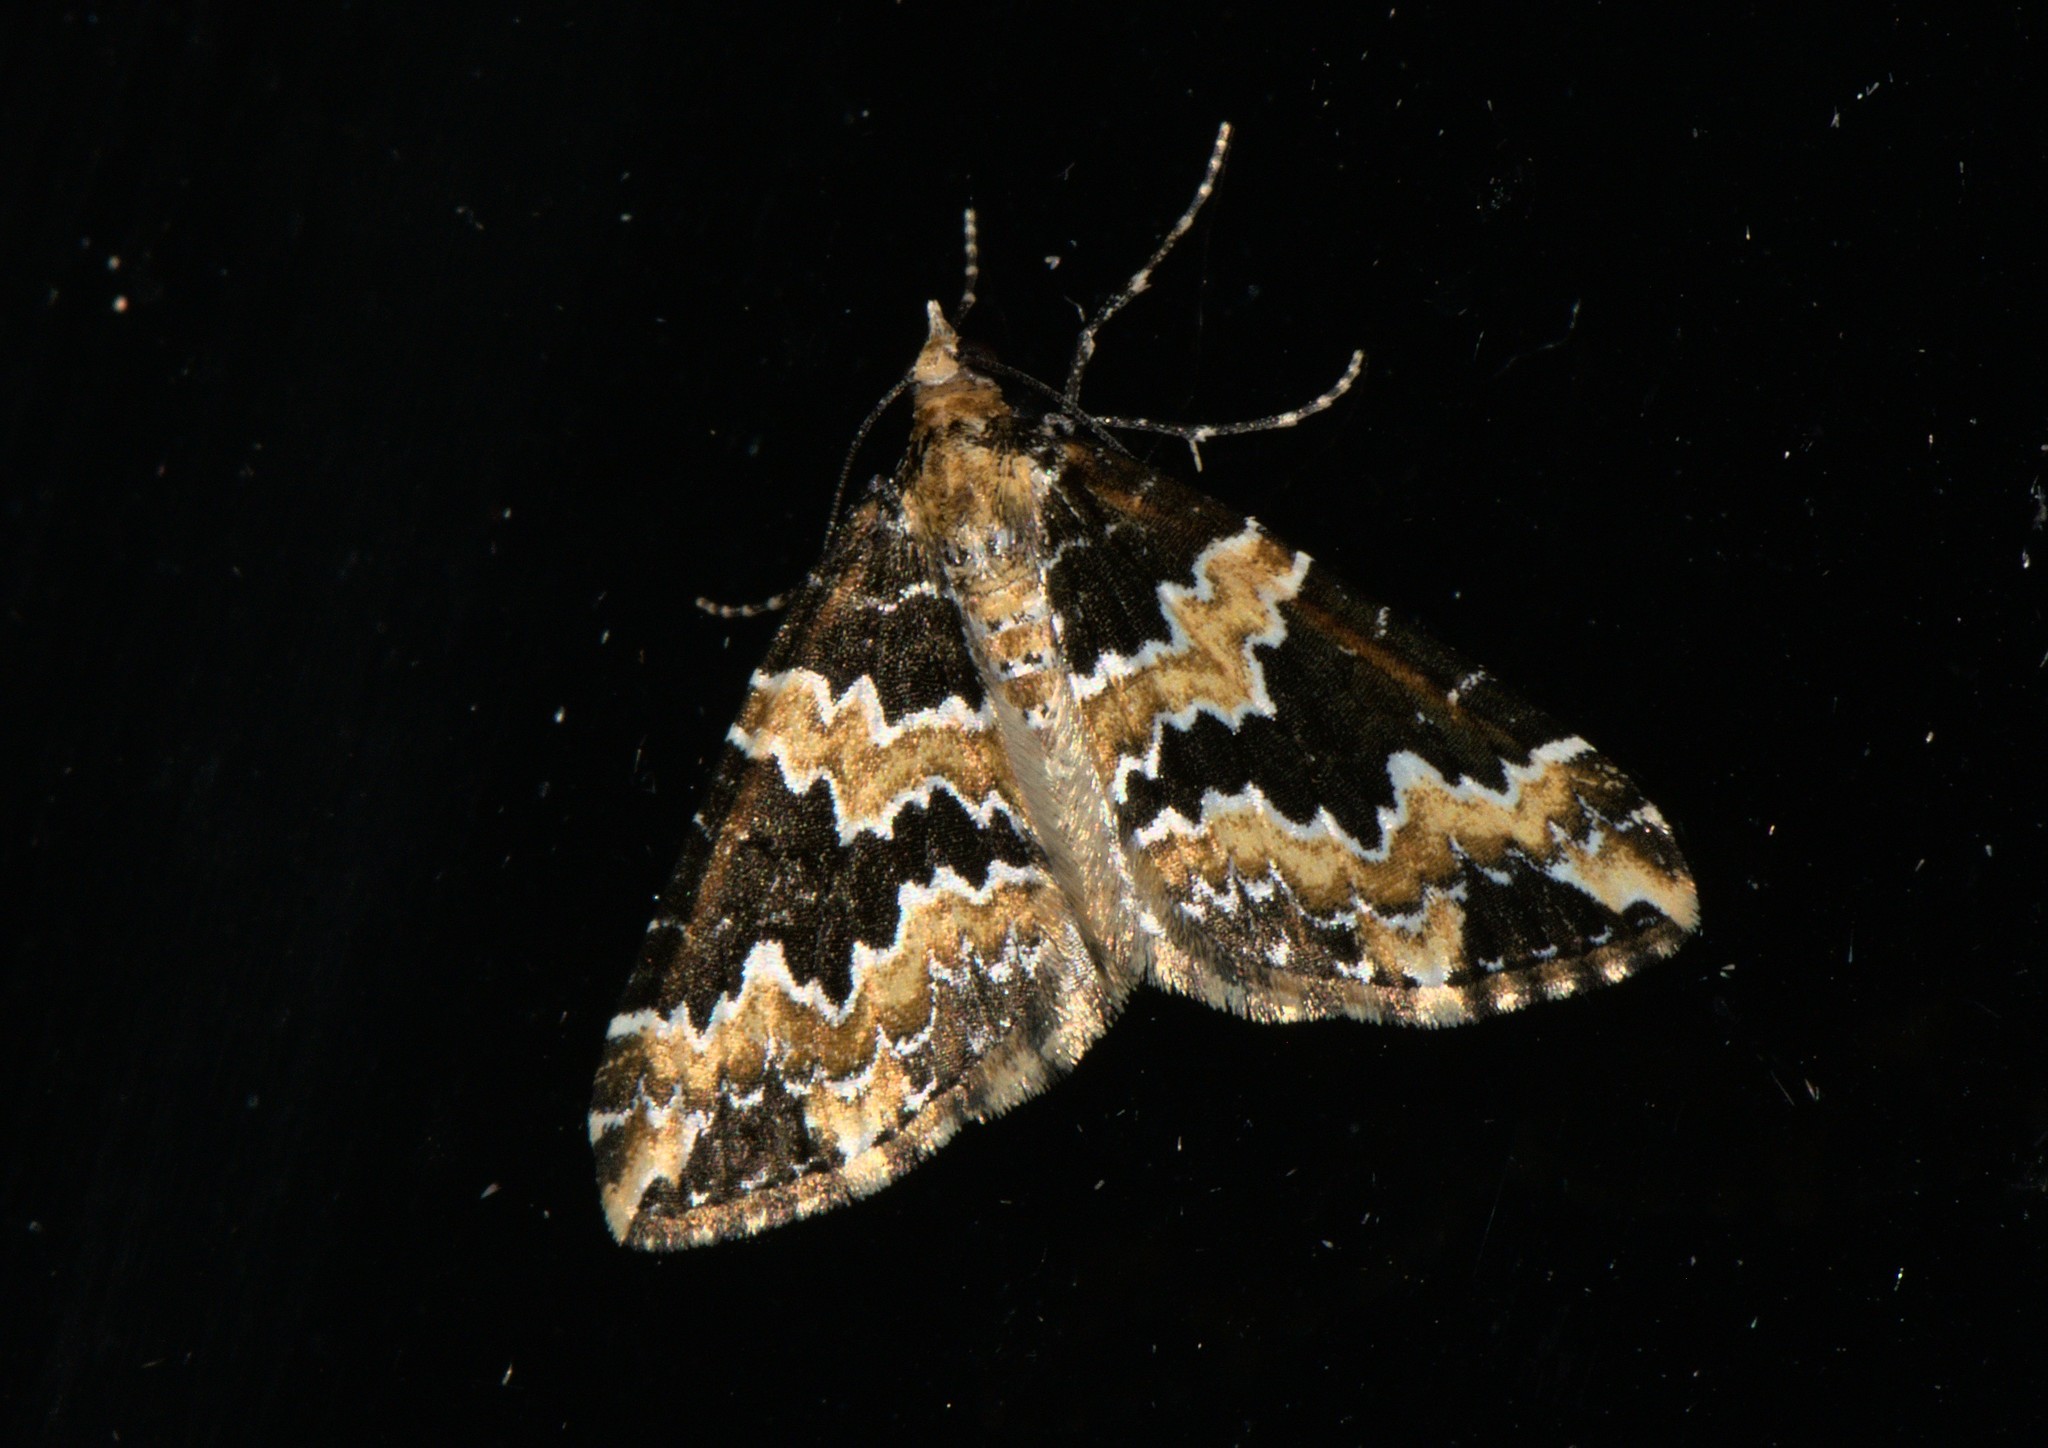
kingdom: Animalia
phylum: Arthropoda
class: Insecta
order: Lepidoptera
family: Geometridae
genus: Electrophaes
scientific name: Electrophaes marginata
